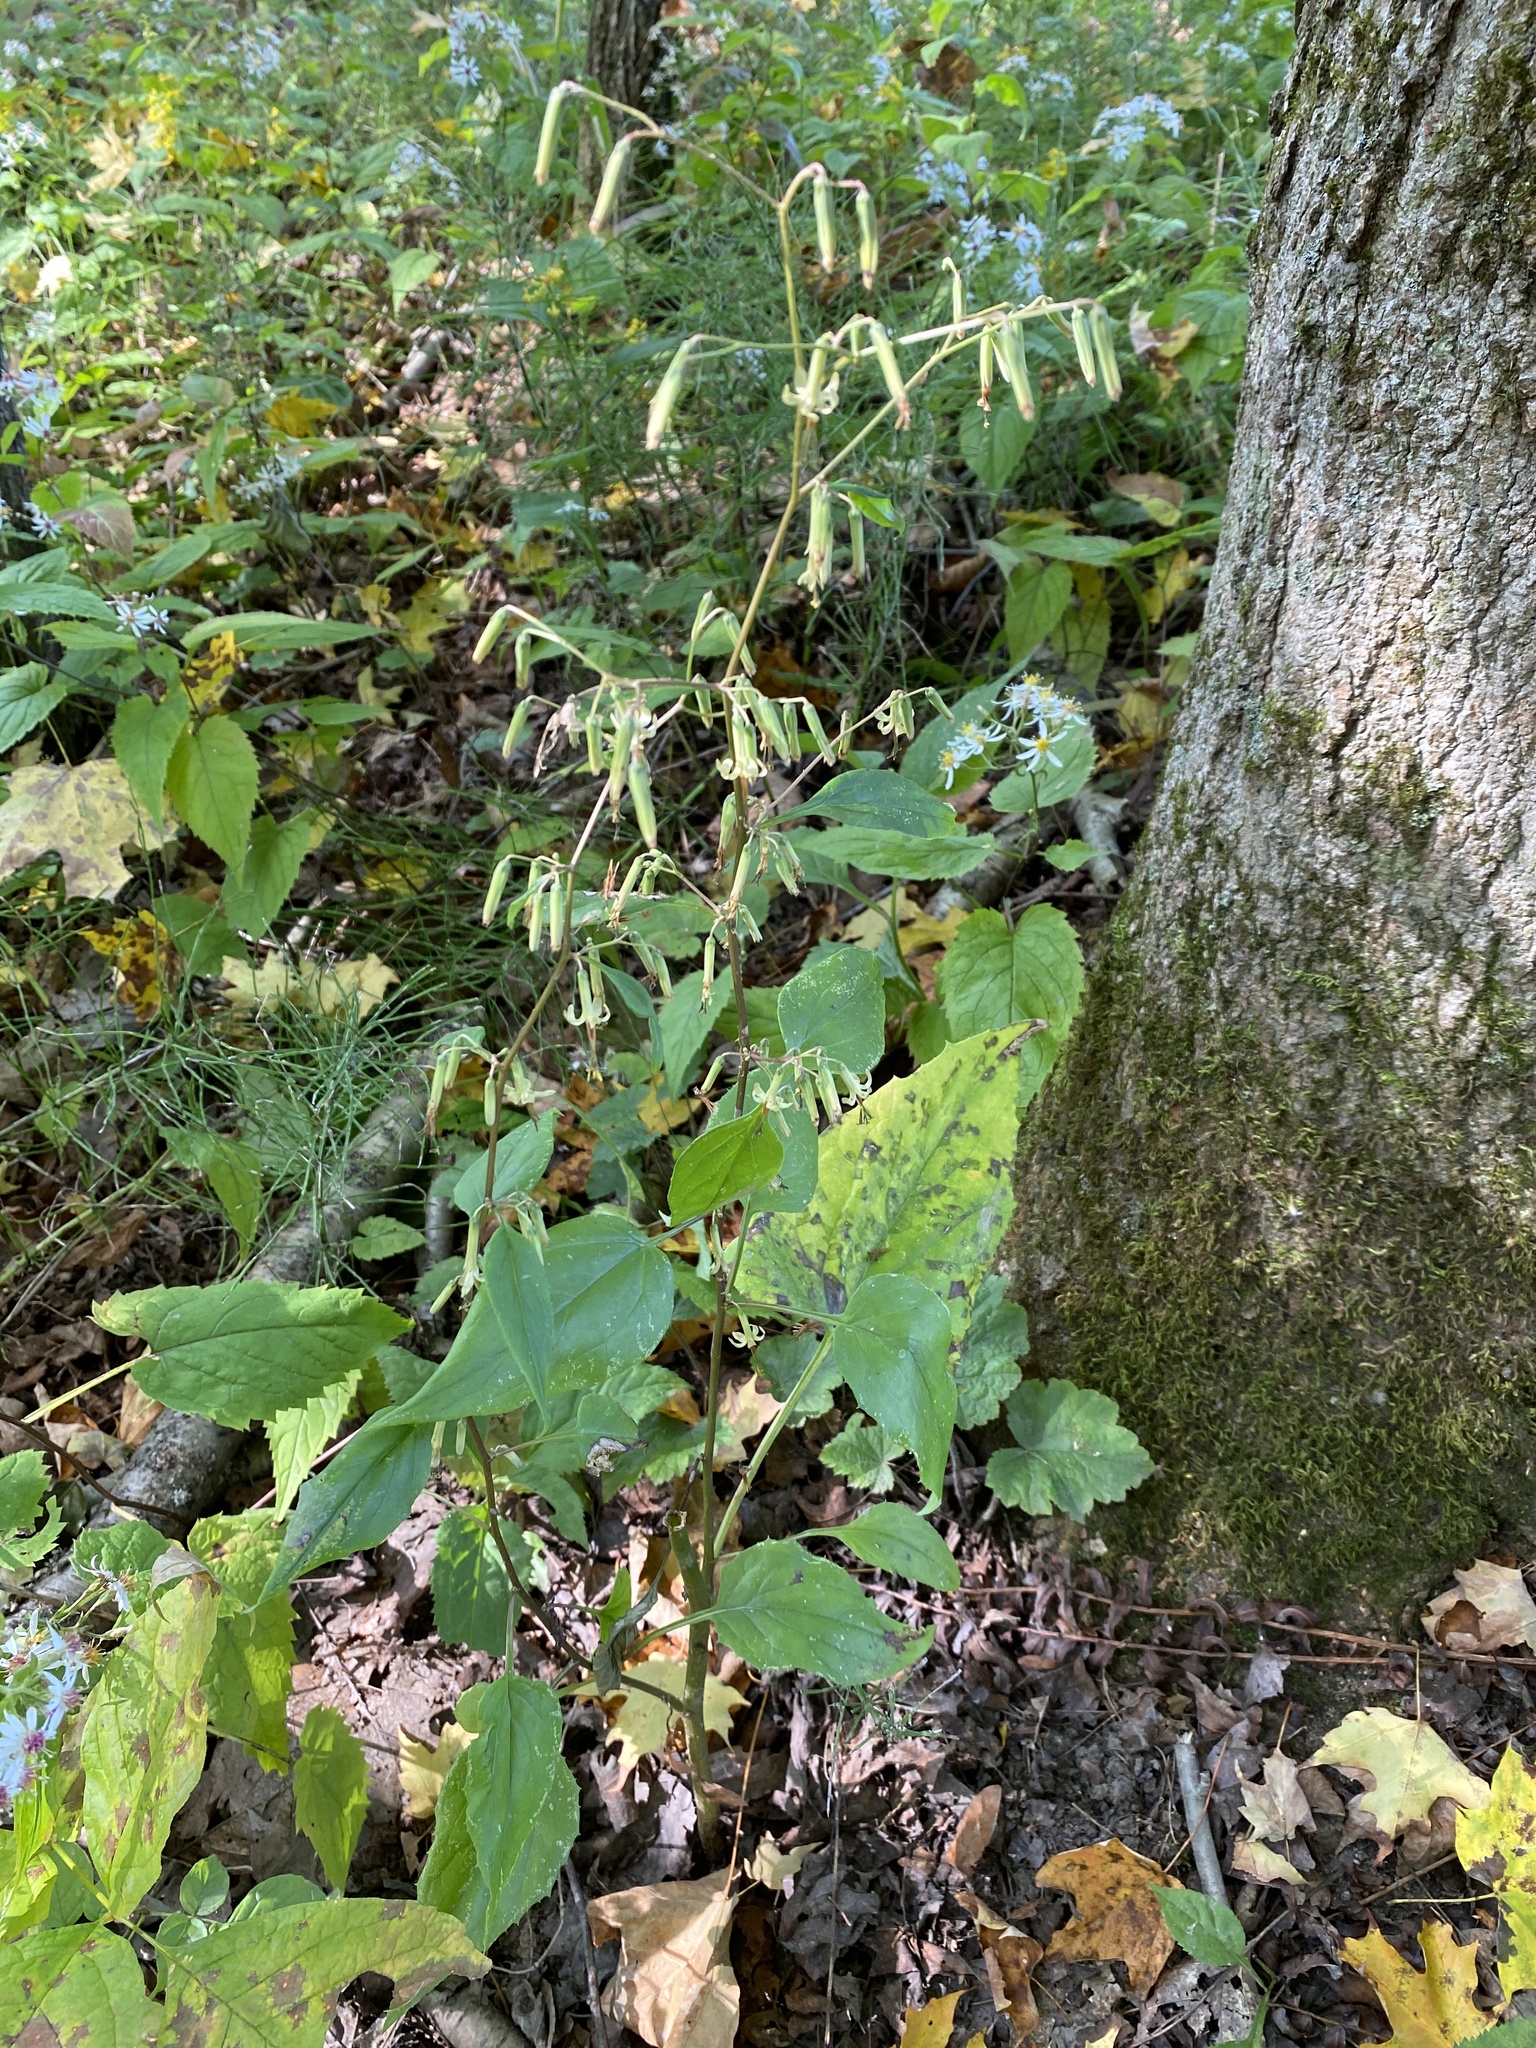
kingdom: Plantae
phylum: Tracheophyta
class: Magnoliopsida
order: Asterales
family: Asteraceae
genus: Nabalus
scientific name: Nabalus altissima
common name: Tall rattlesnakeroot
